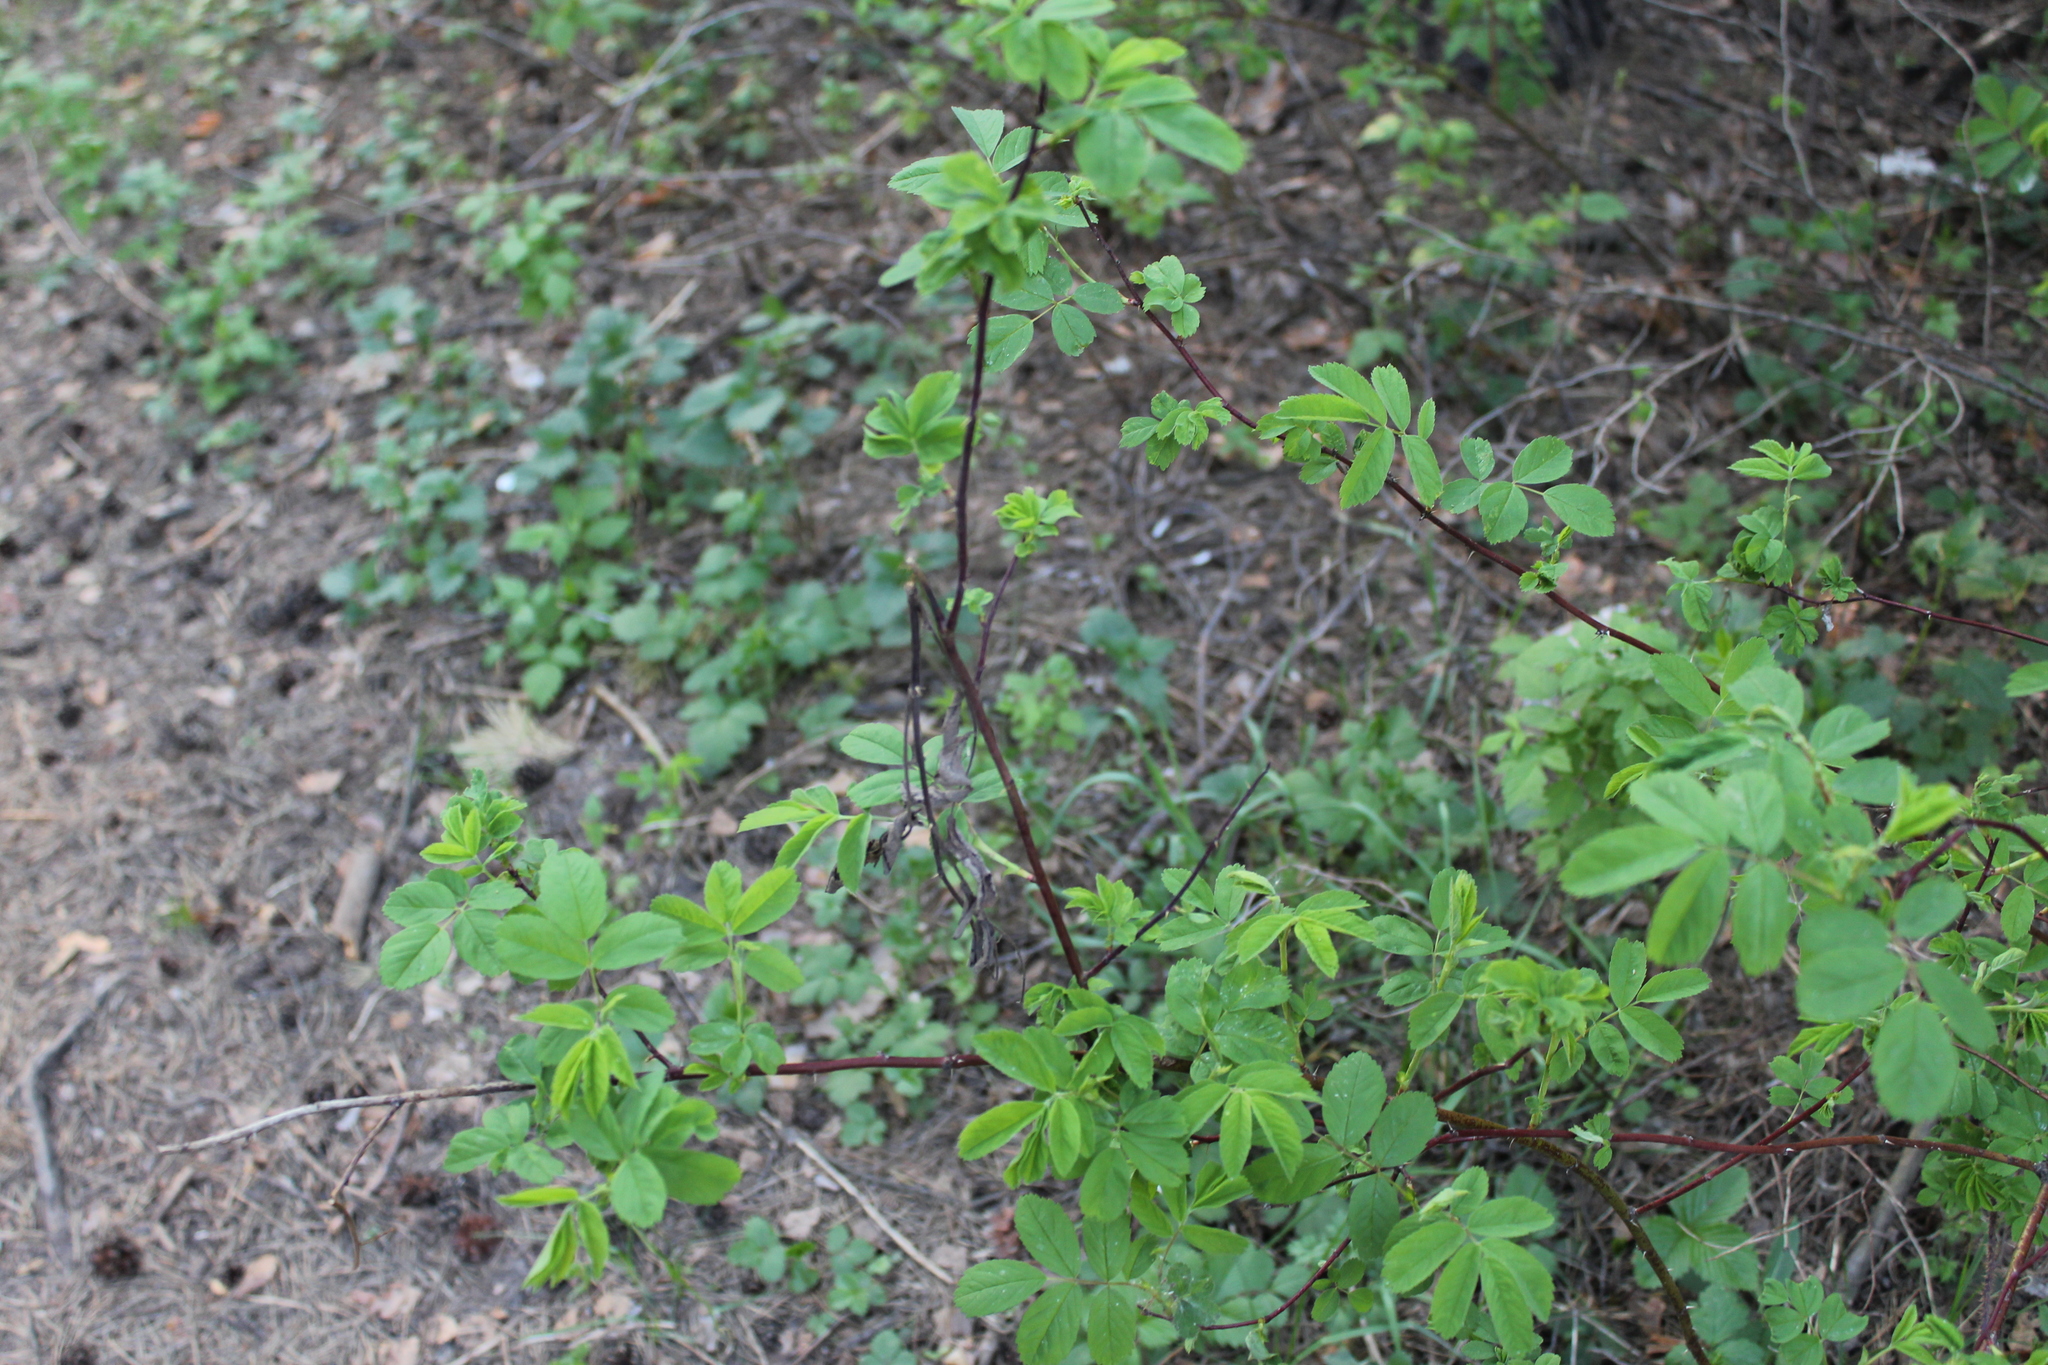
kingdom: Plantae
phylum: Tracheophyta
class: Magnoliopsida
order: Rosales
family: Rosaceae
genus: Rosa
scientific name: Rosa majalis
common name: Cinnamon rose
